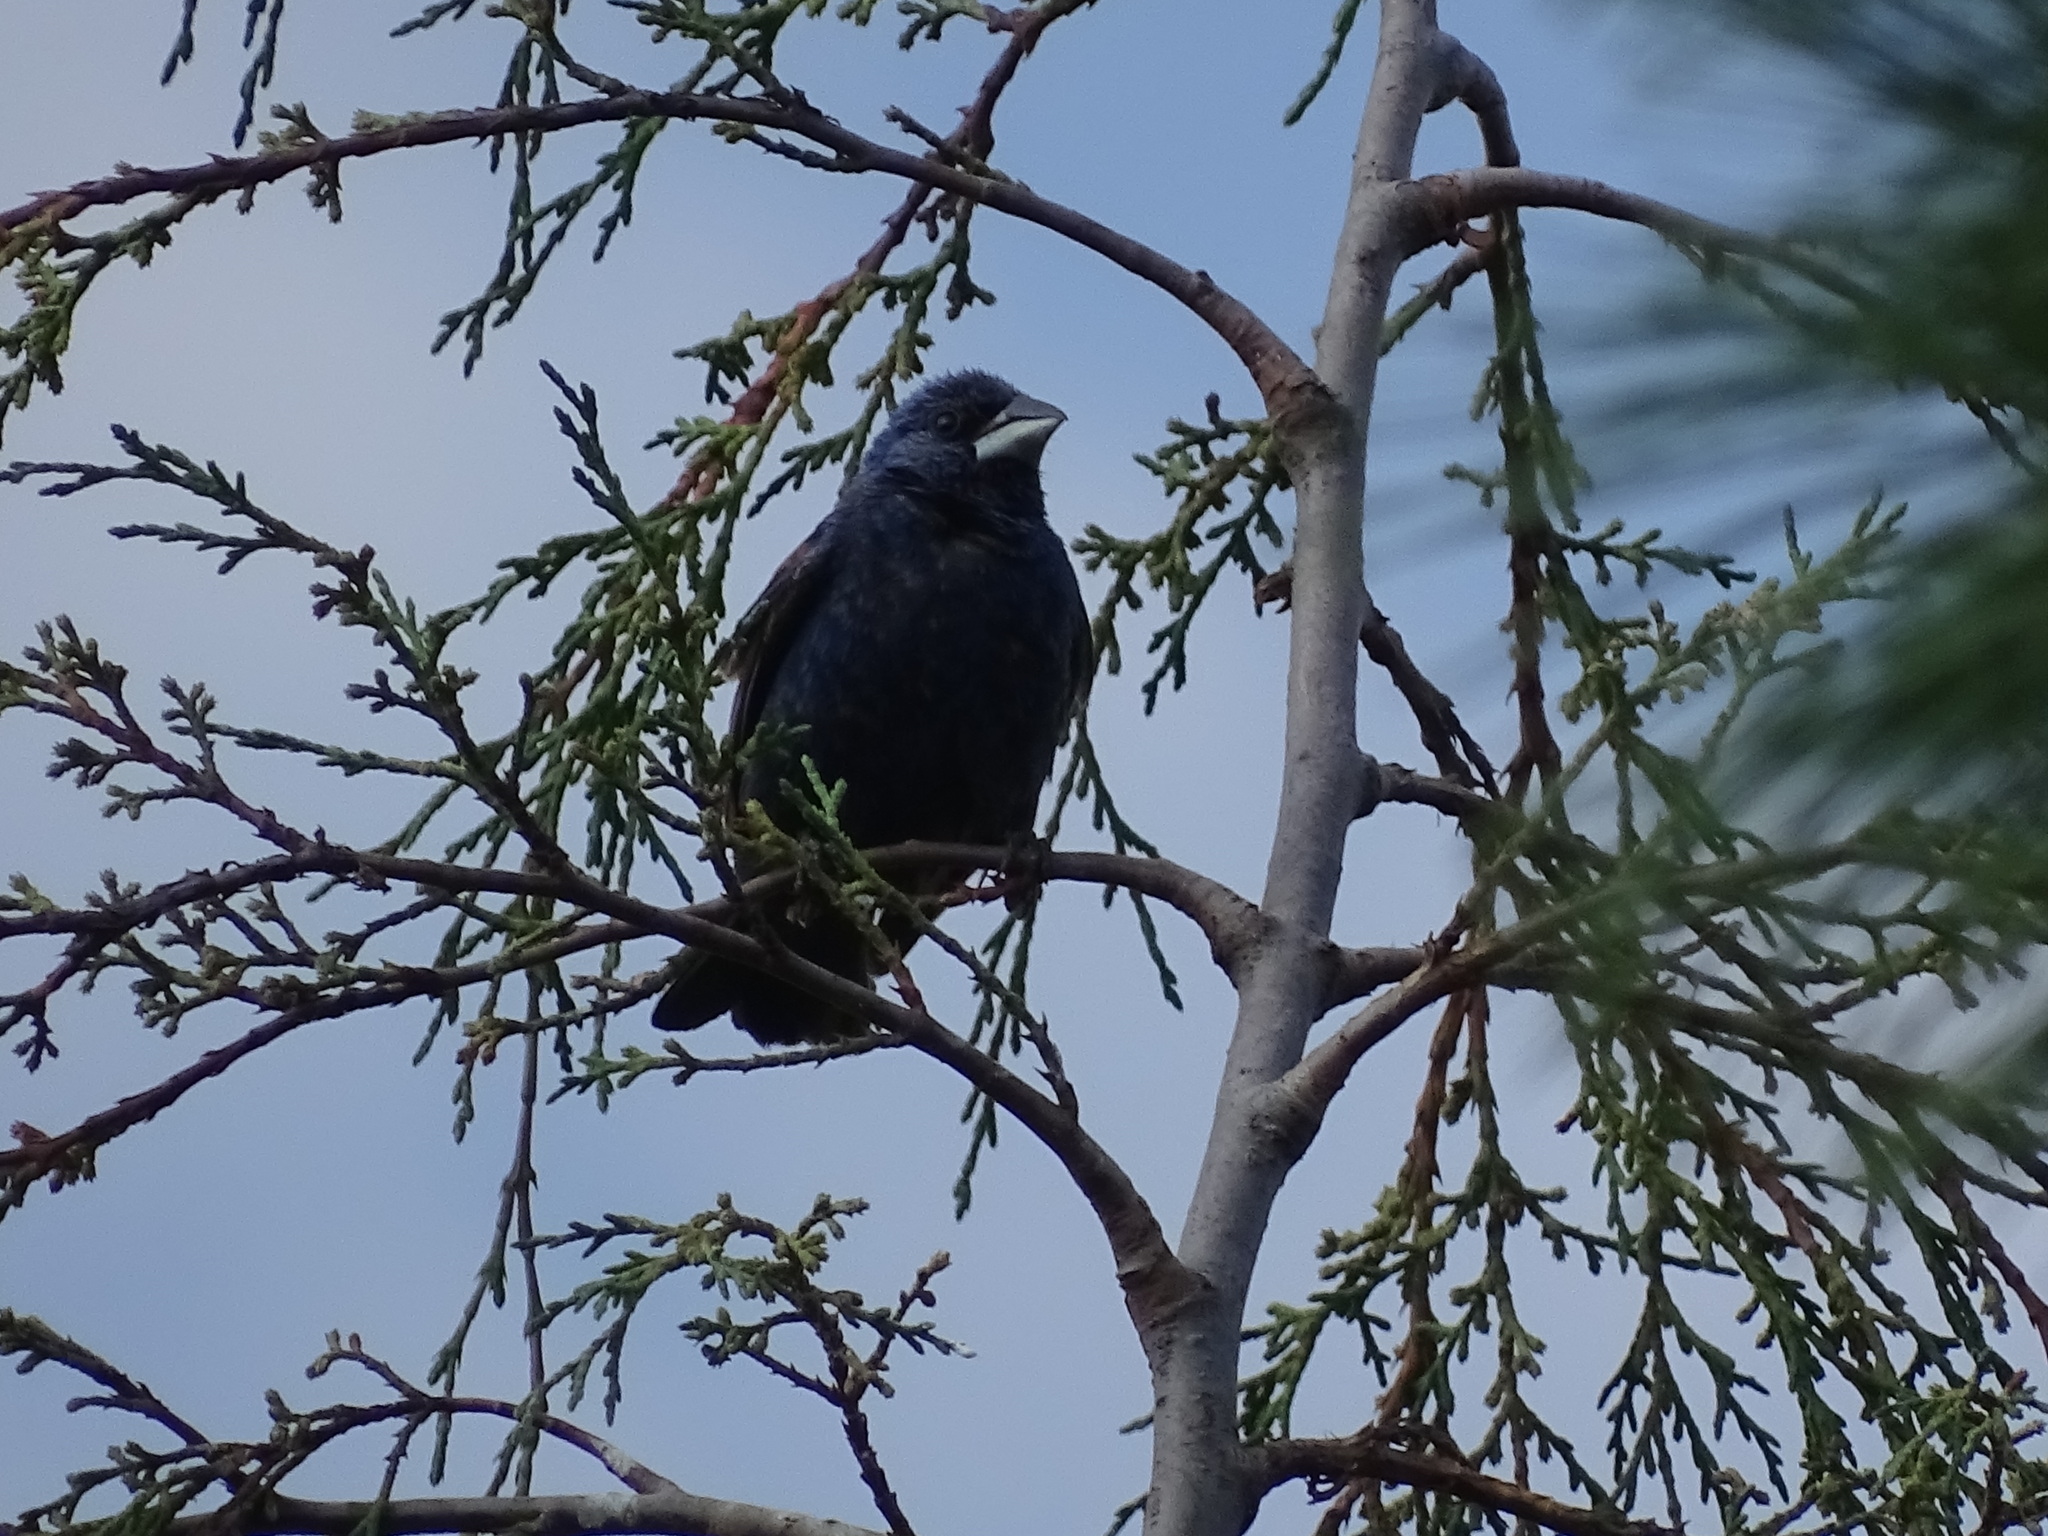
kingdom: Animalia
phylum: Chordata
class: Aves
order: Passeriformes
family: Cardinalidae
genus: Passerina
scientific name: Passerina caerulea
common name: Blue grosbeak
